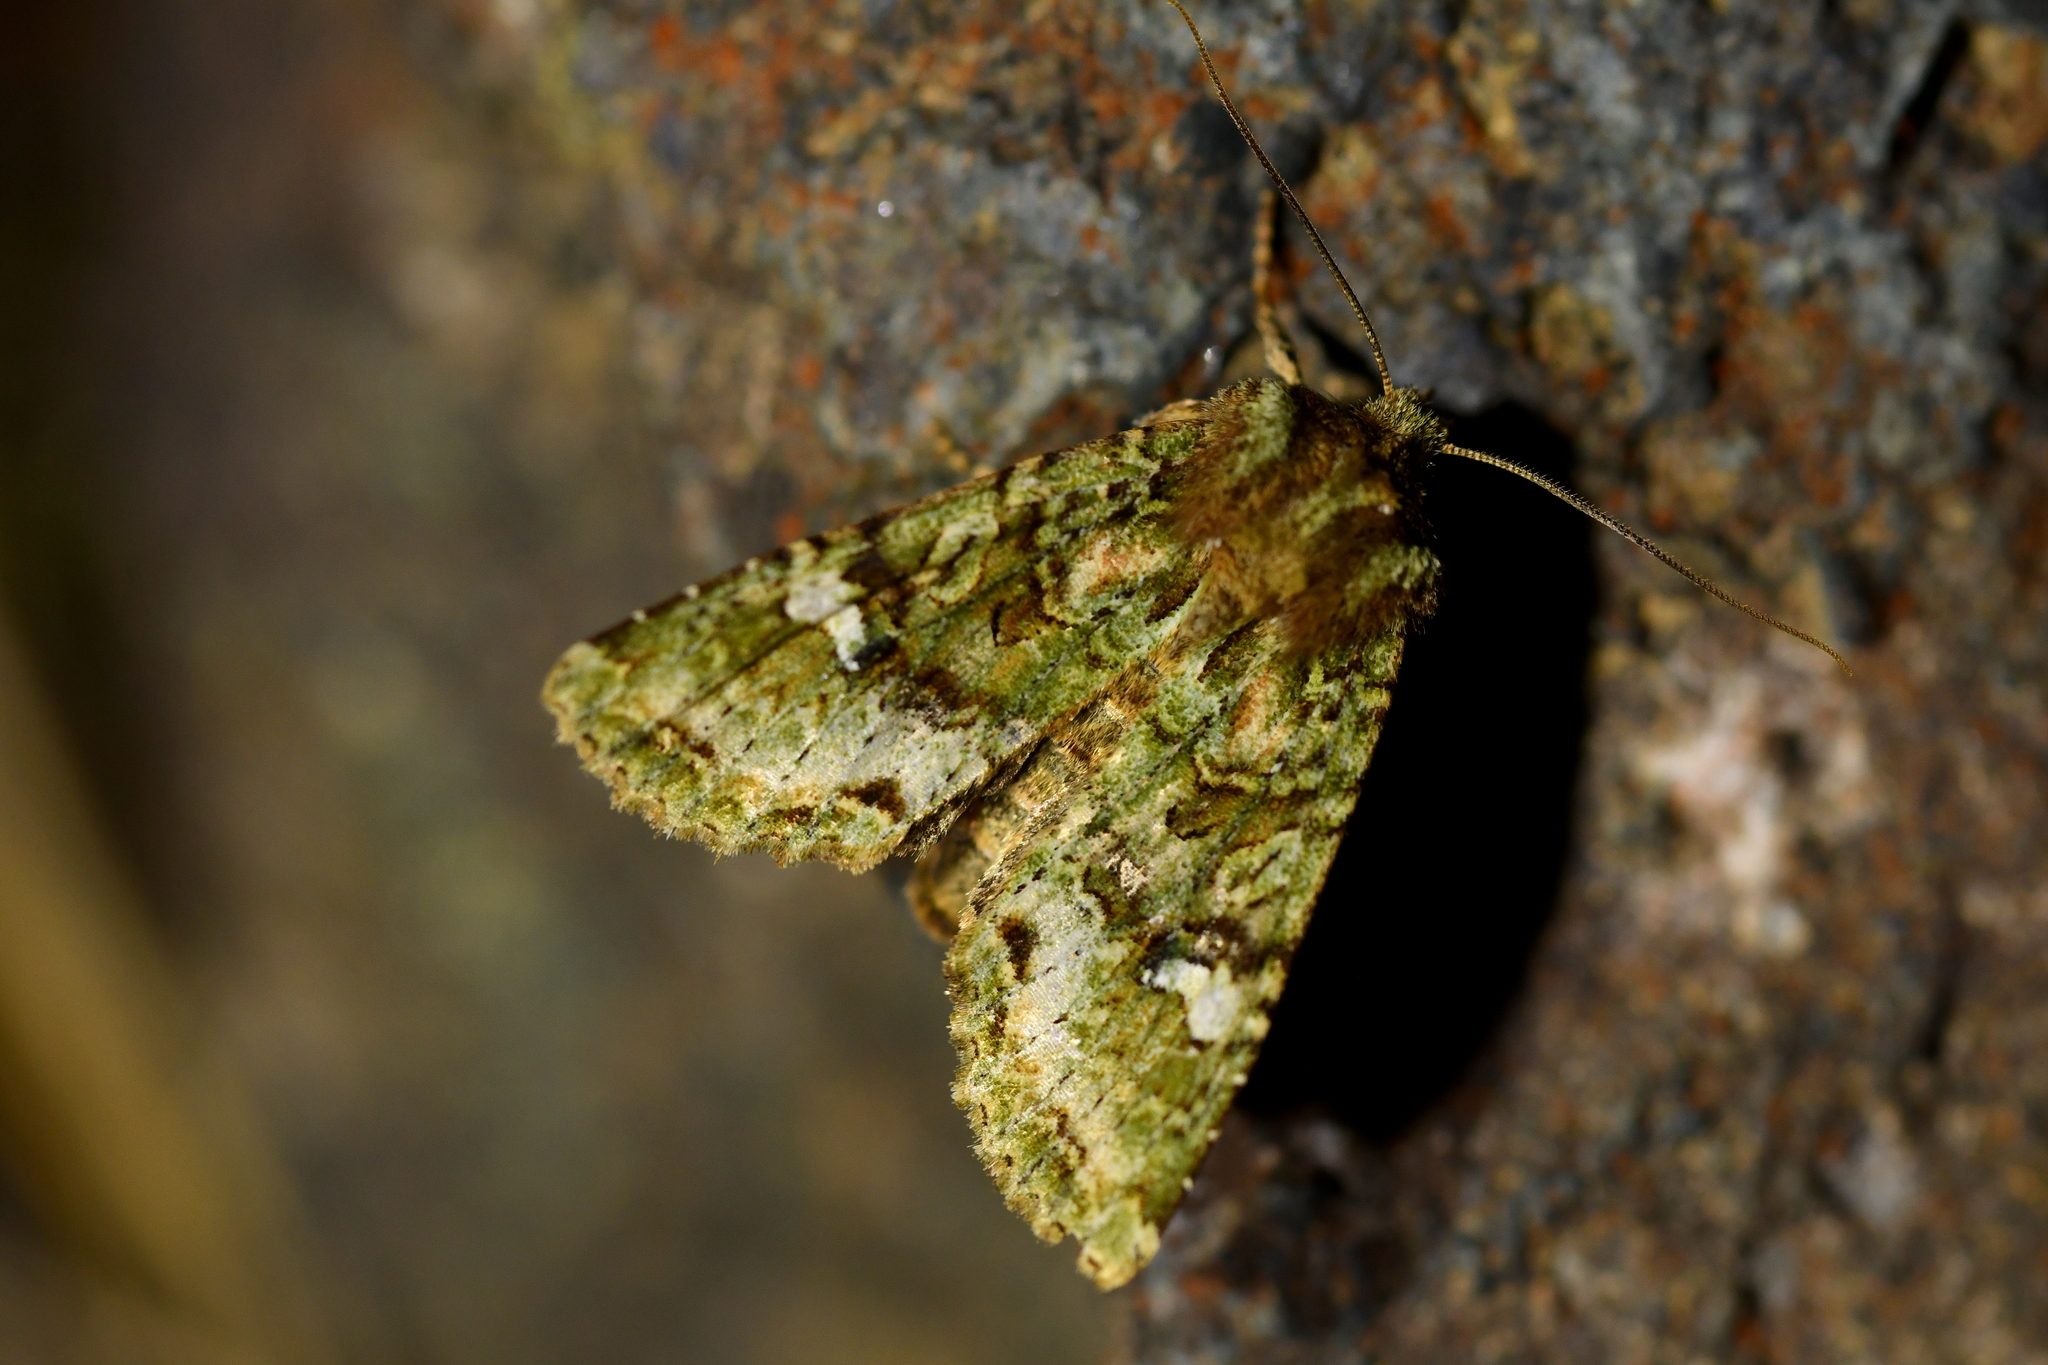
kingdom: Animalia
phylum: Arthropoda
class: Insecta
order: Lepidoptera
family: Noctuidae
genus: Meterana
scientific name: Meterana
